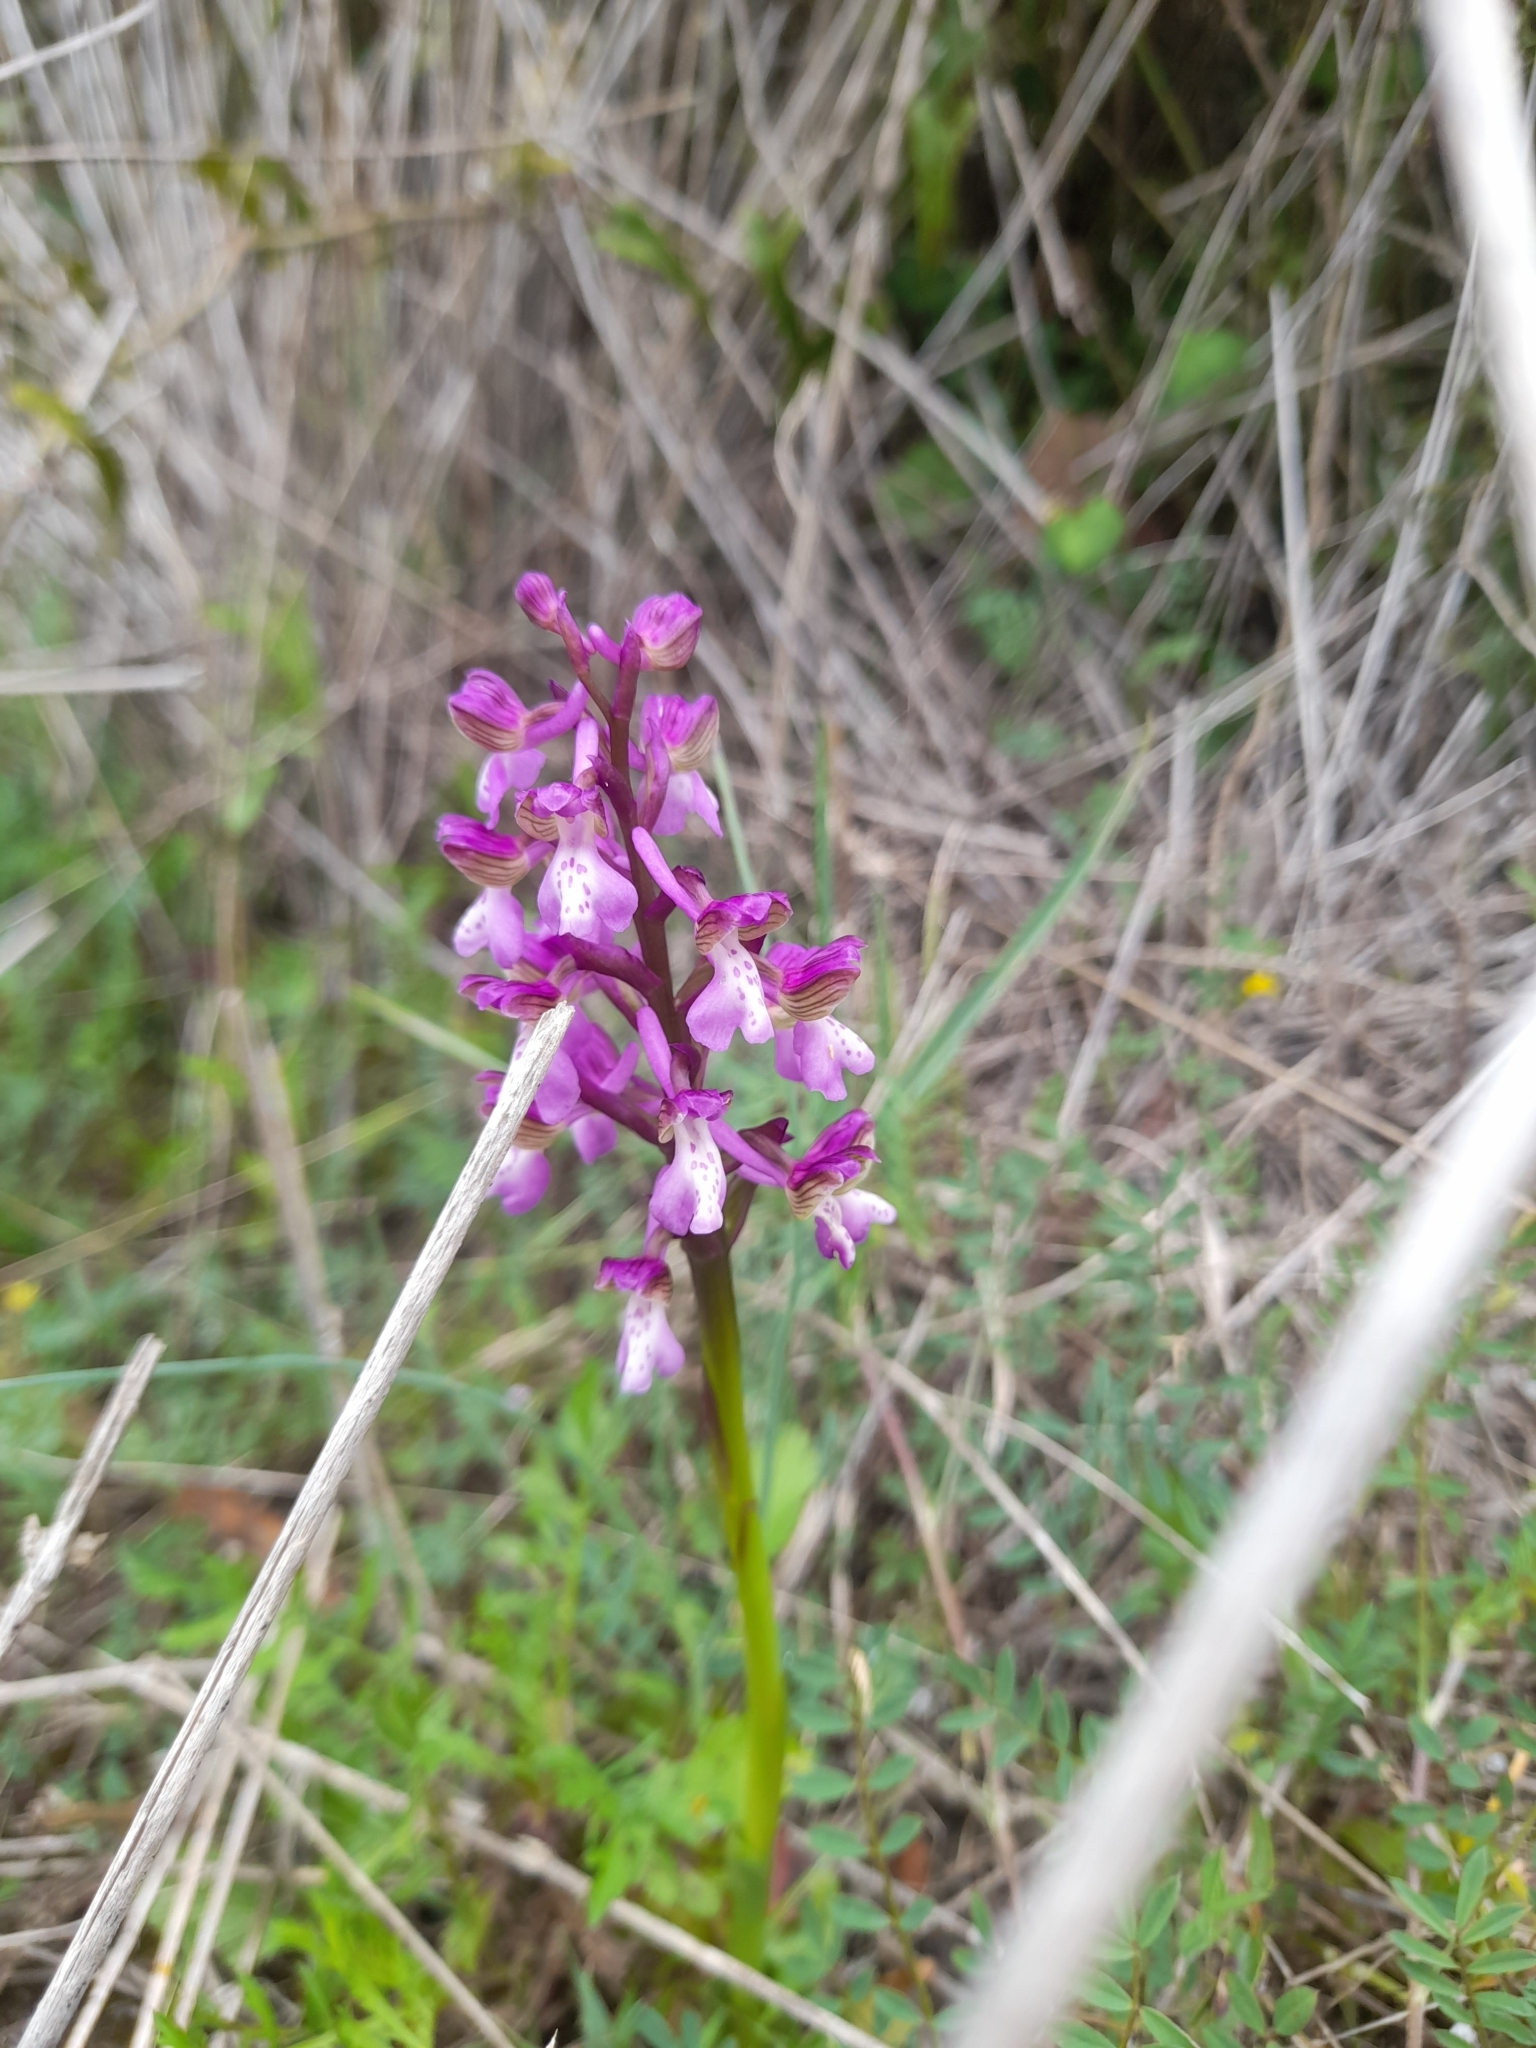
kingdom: Plantae
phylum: Tracheophyta
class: Liliopsida
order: Asparagales
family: Orchidaceae
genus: Anacamptis
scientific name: Anacamptis morio
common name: Green-winged orchid
